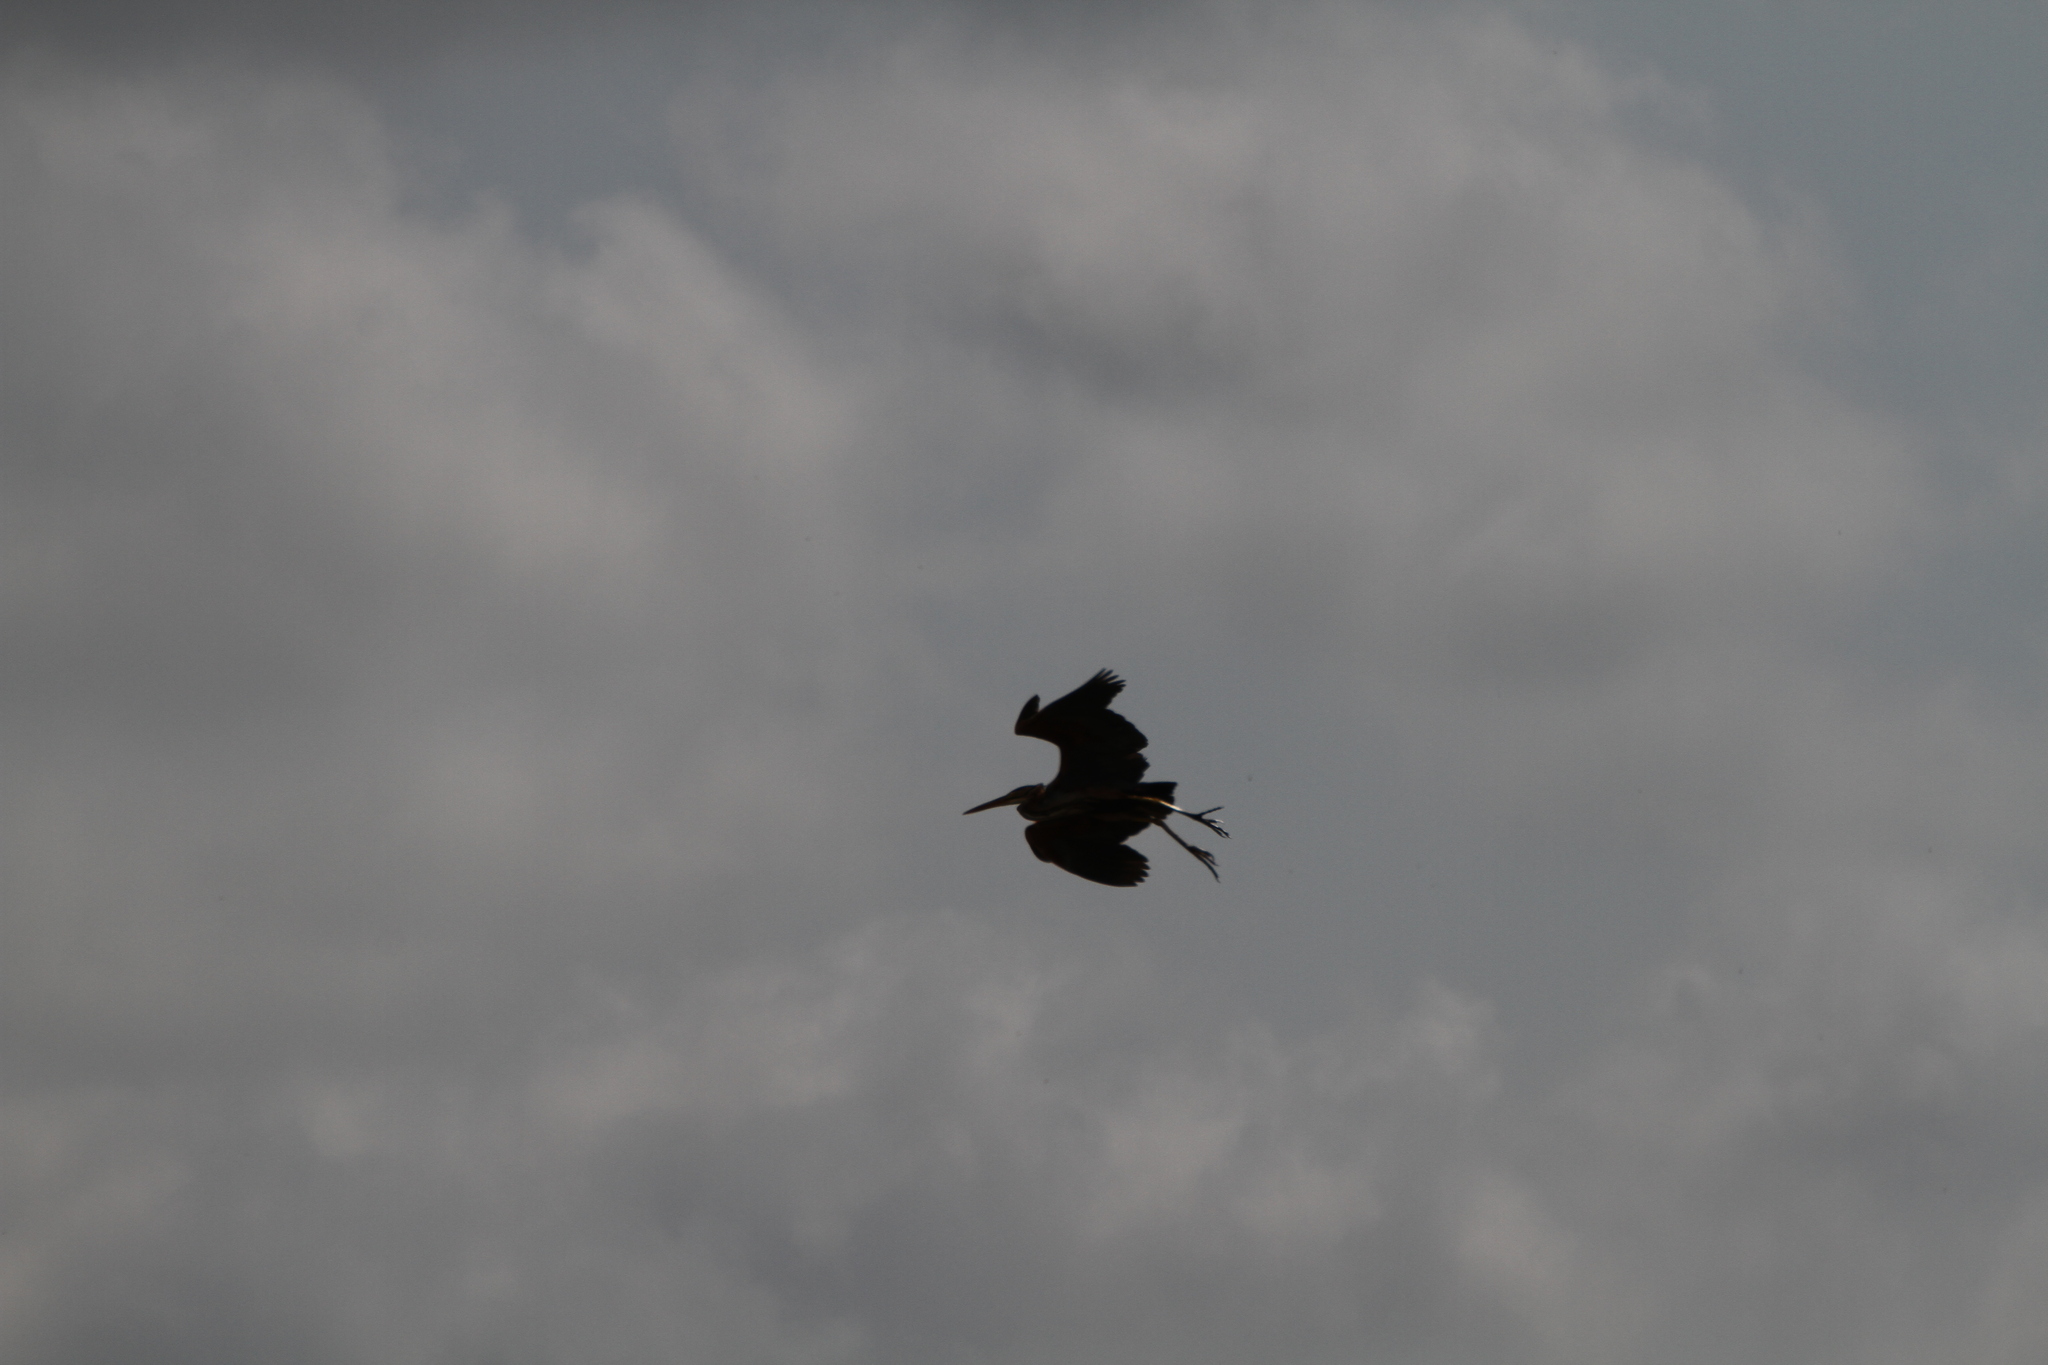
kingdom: Animalia
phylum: Chordata
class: Aves
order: Pelecaniformes
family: Ardeidae
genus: Ardea
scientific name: Ardea purpurea
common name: Purple heron
